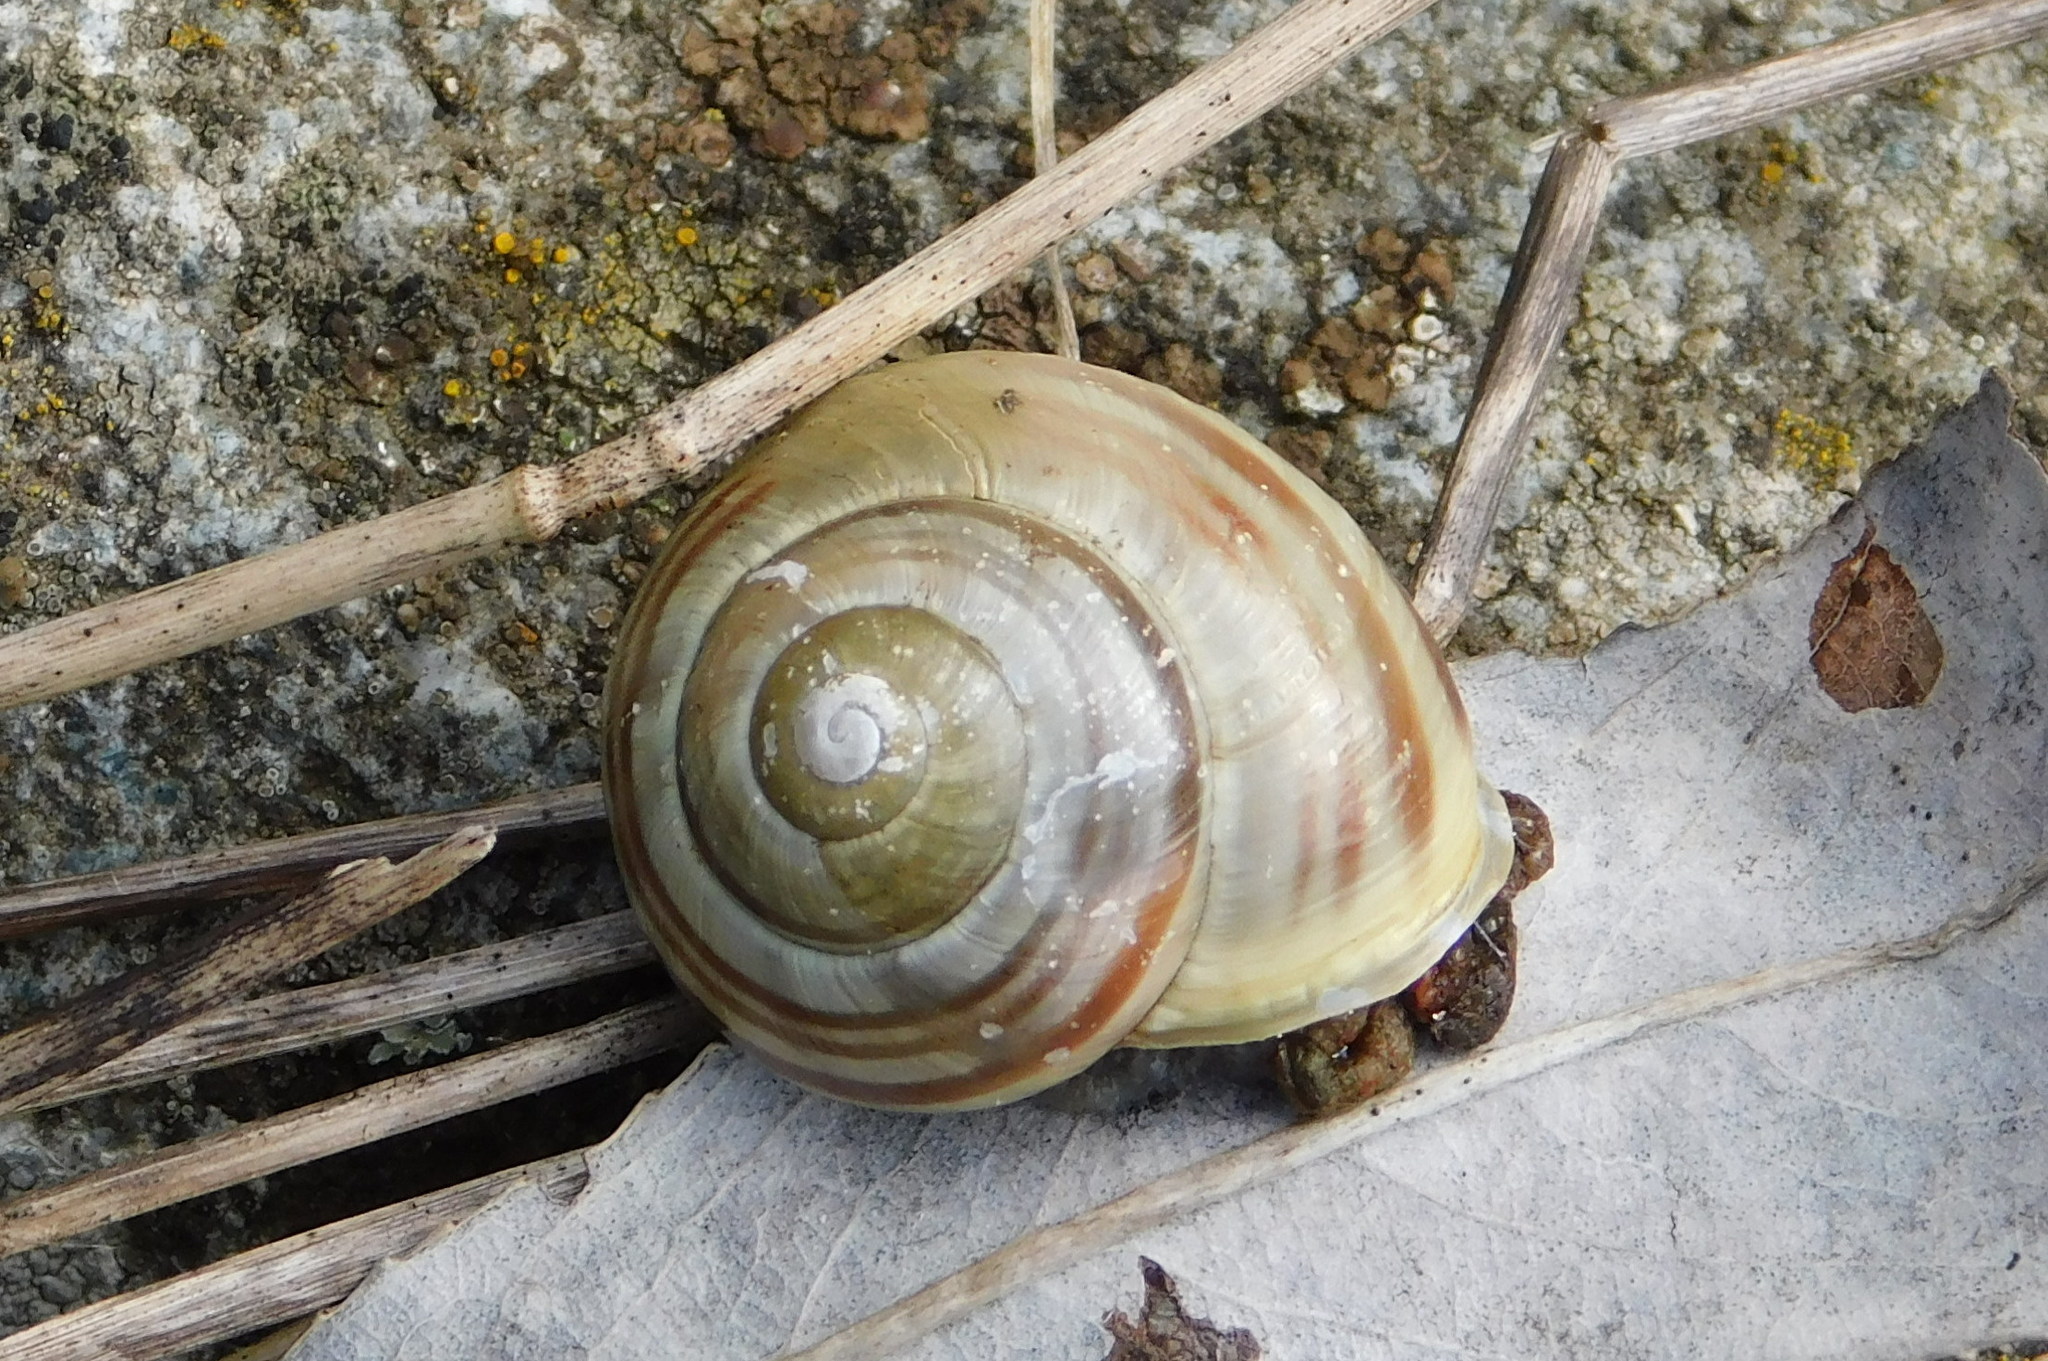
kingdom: Animalia
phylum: Mollusca
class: Gastropoda
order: Stylommatophora
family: Helicidae
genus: Cepaea
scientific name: Cepaea hortensis
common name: White-lip gardensnail
